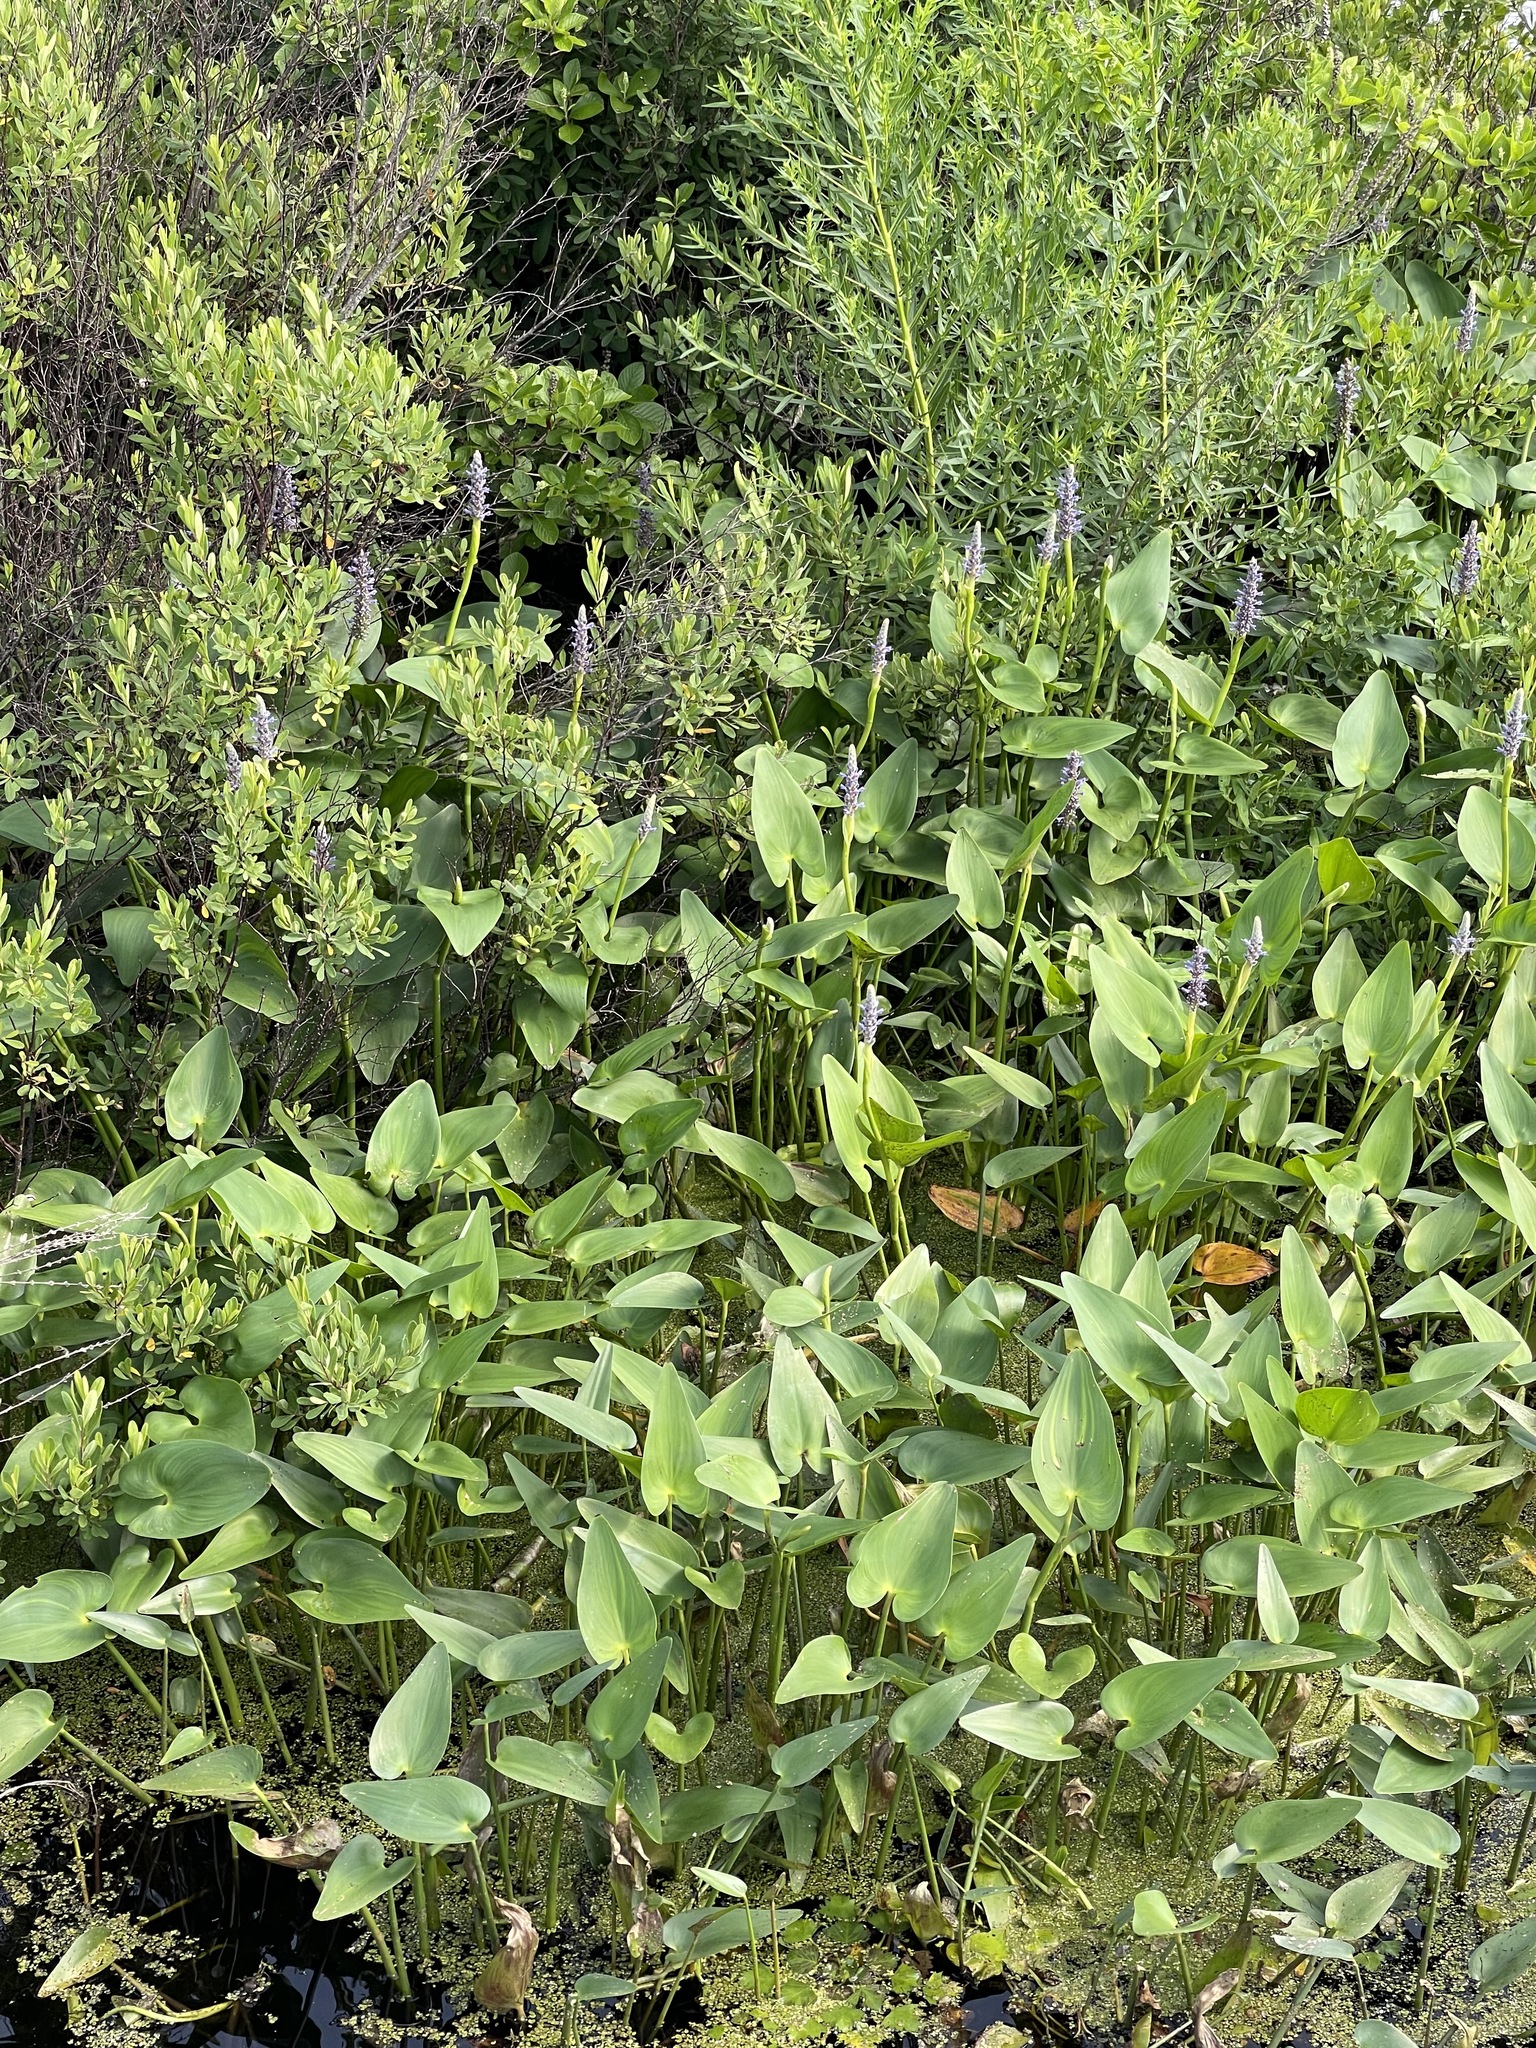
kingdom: Plantae
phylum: Tracheophyta
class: Liliopsida
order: Commelinales
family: Pontederiaceae
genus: Pontederia
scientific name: Pontederia cordata
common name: Pickerelweed
